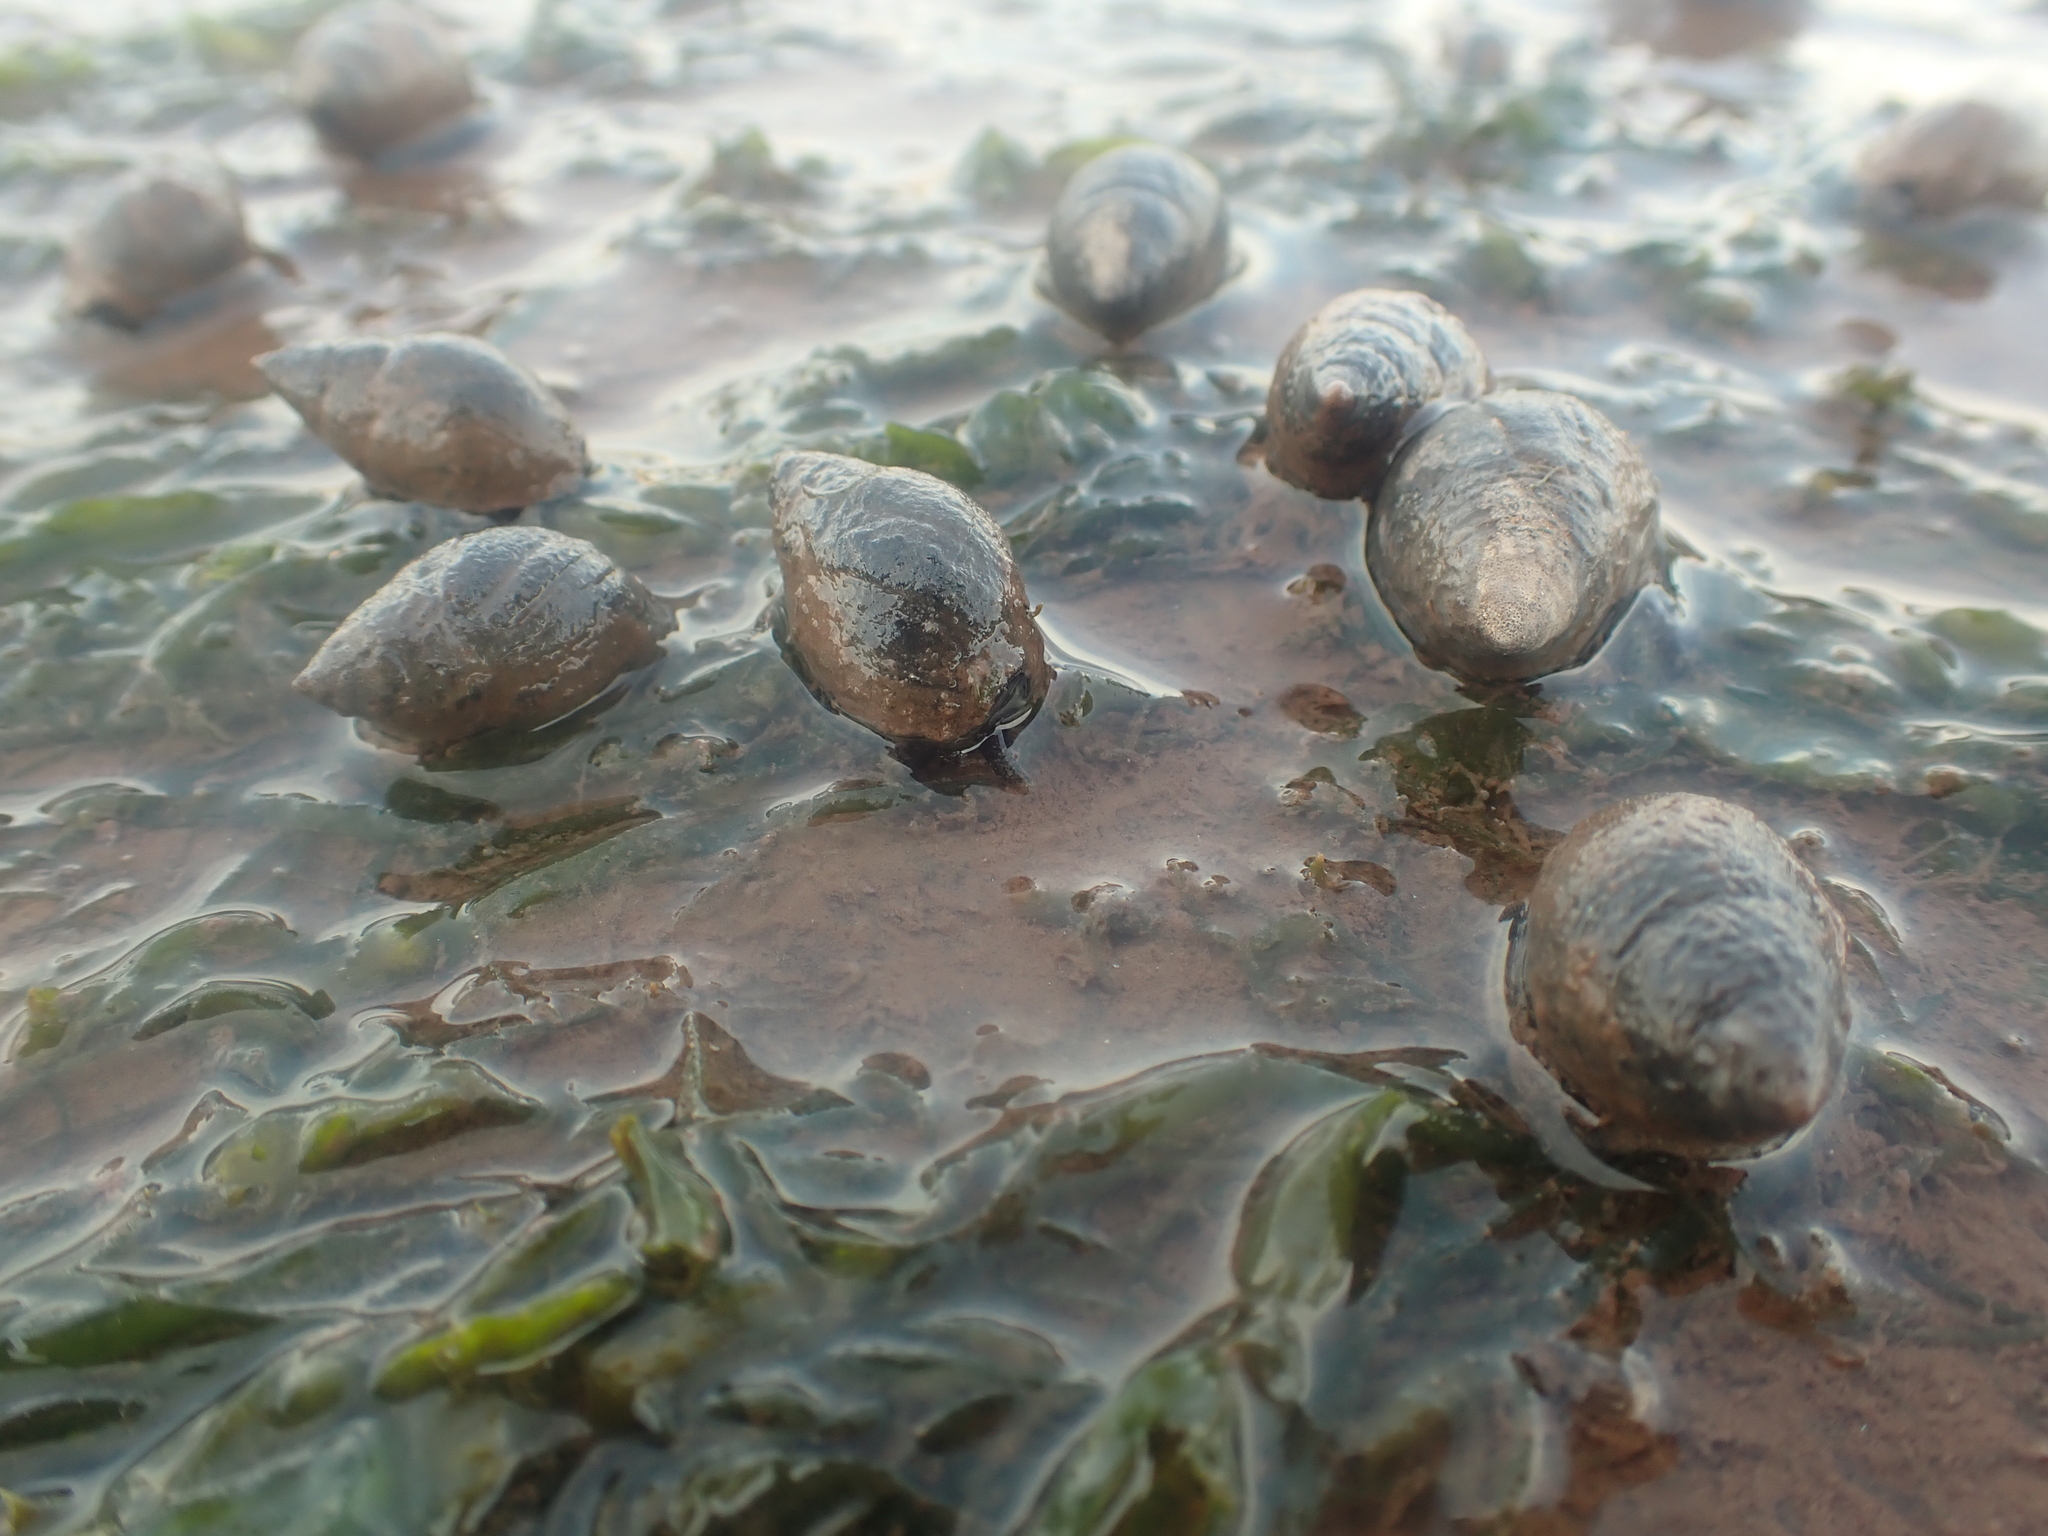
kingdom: Animalia
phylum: Mollusca
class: Gastropoda
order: Neogastropoda
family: Nassariidae
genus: Ilyanassa
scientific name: Ilyanassa obsoleta
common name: Eastern mudsnail
